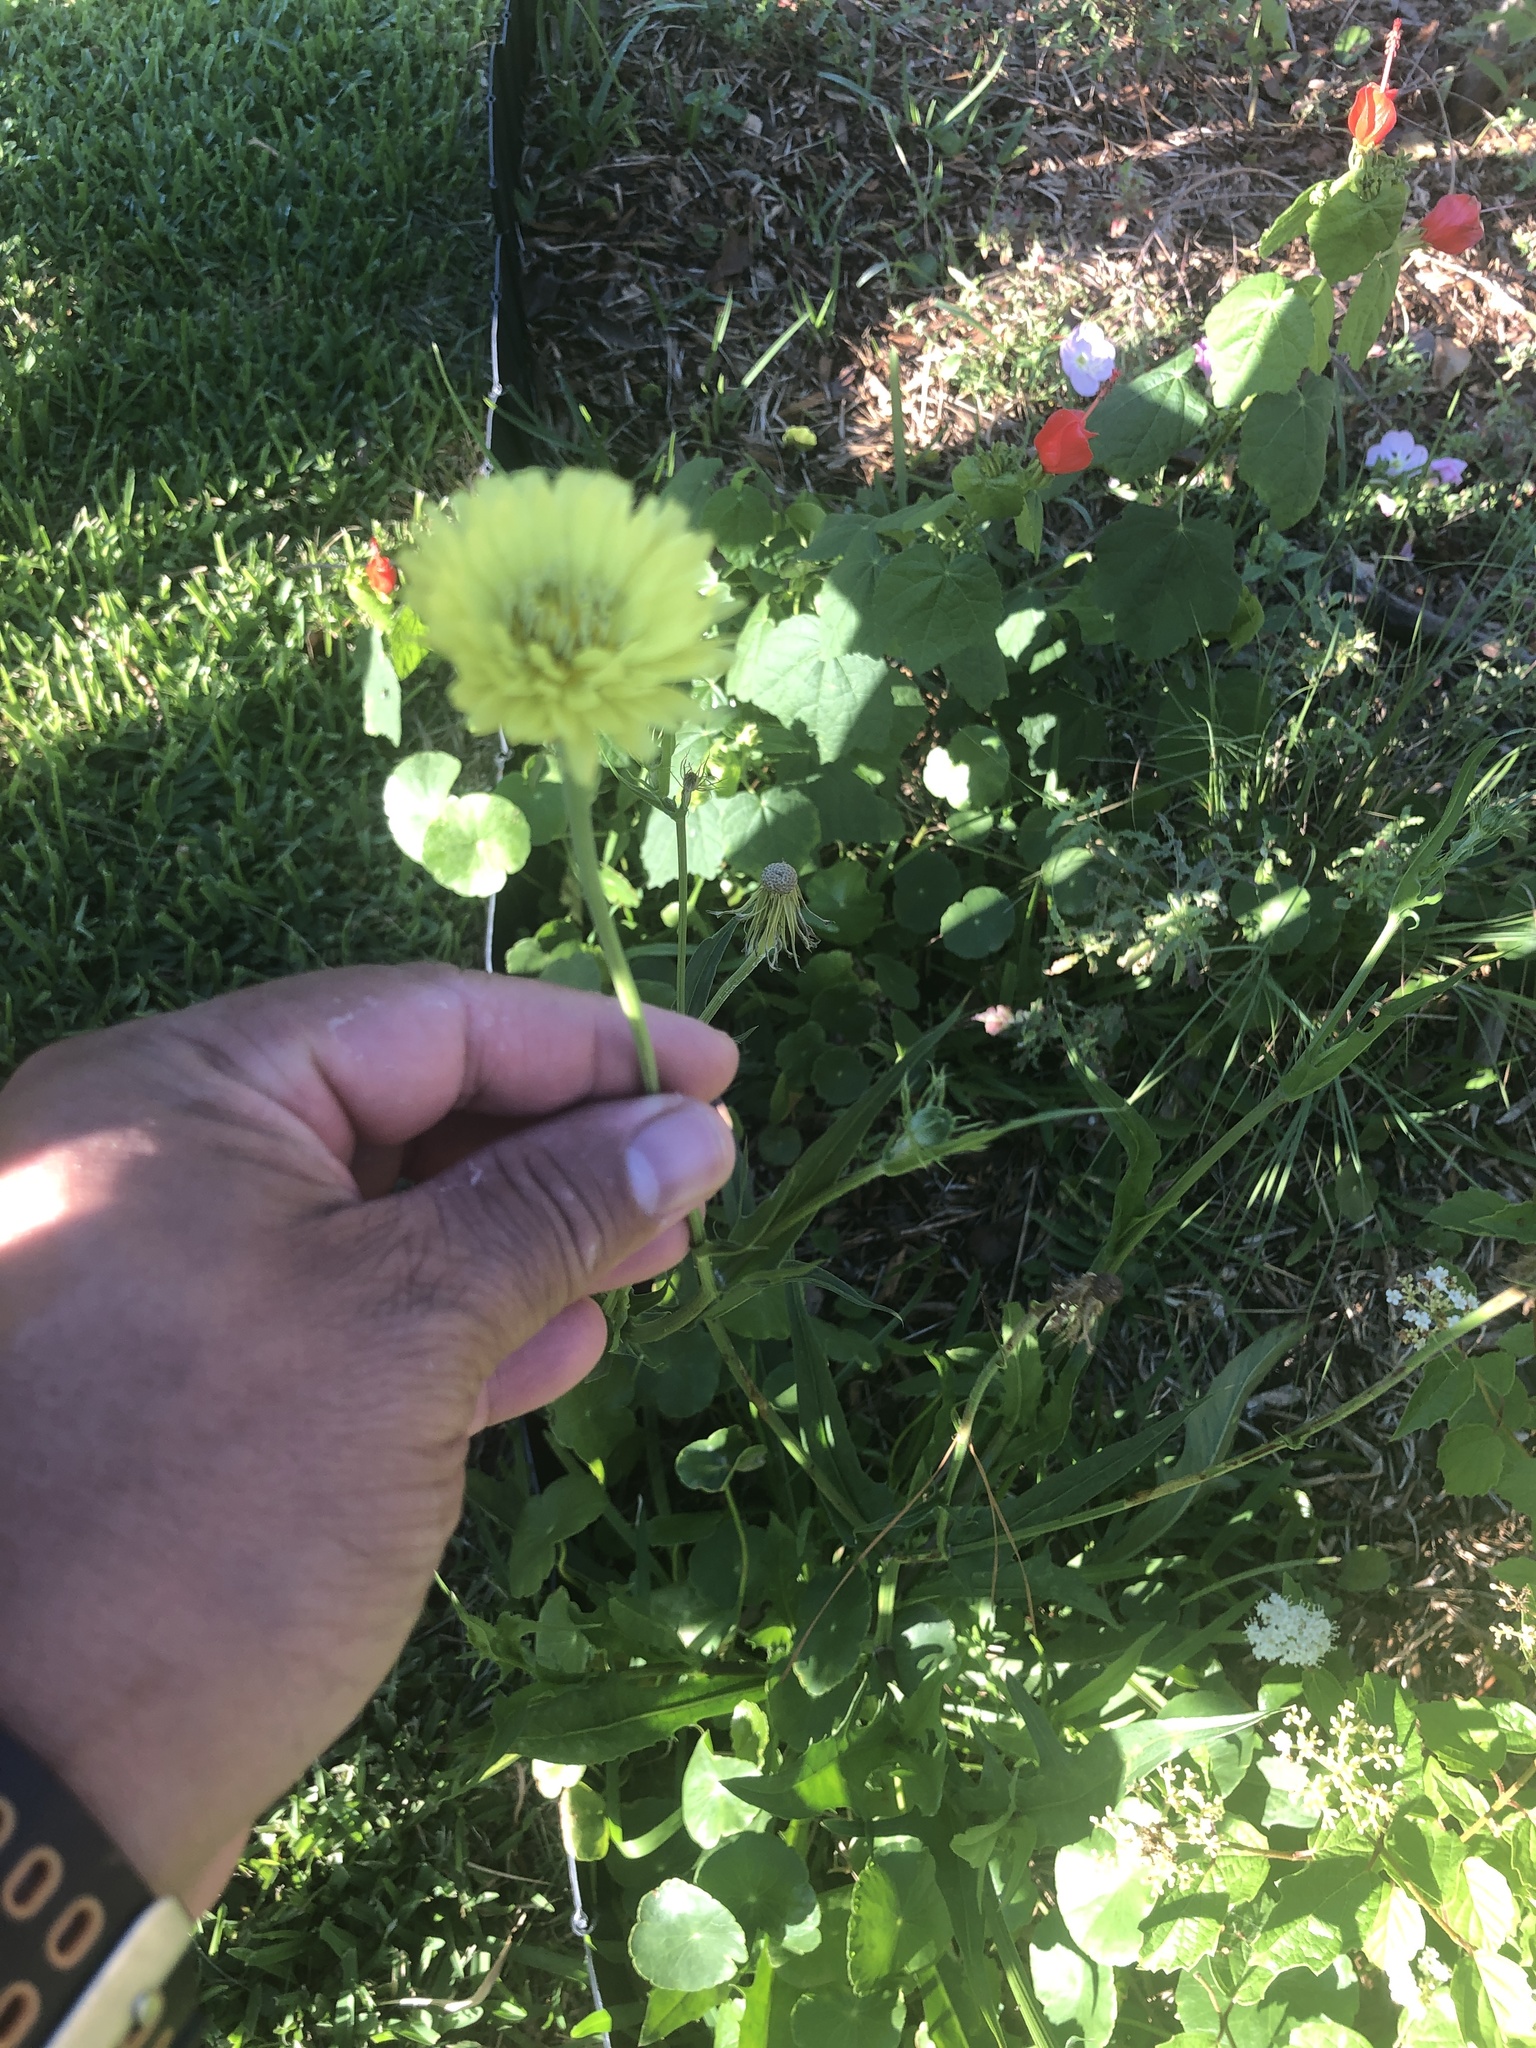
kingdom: Plantae
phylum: Tracheophyta
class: Magnoliopsida
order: Asterales
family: Asteraceae
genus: Pyrrhopappus
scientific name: Pyrrhopappus carolinianus
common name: Carolina desert-chicory
